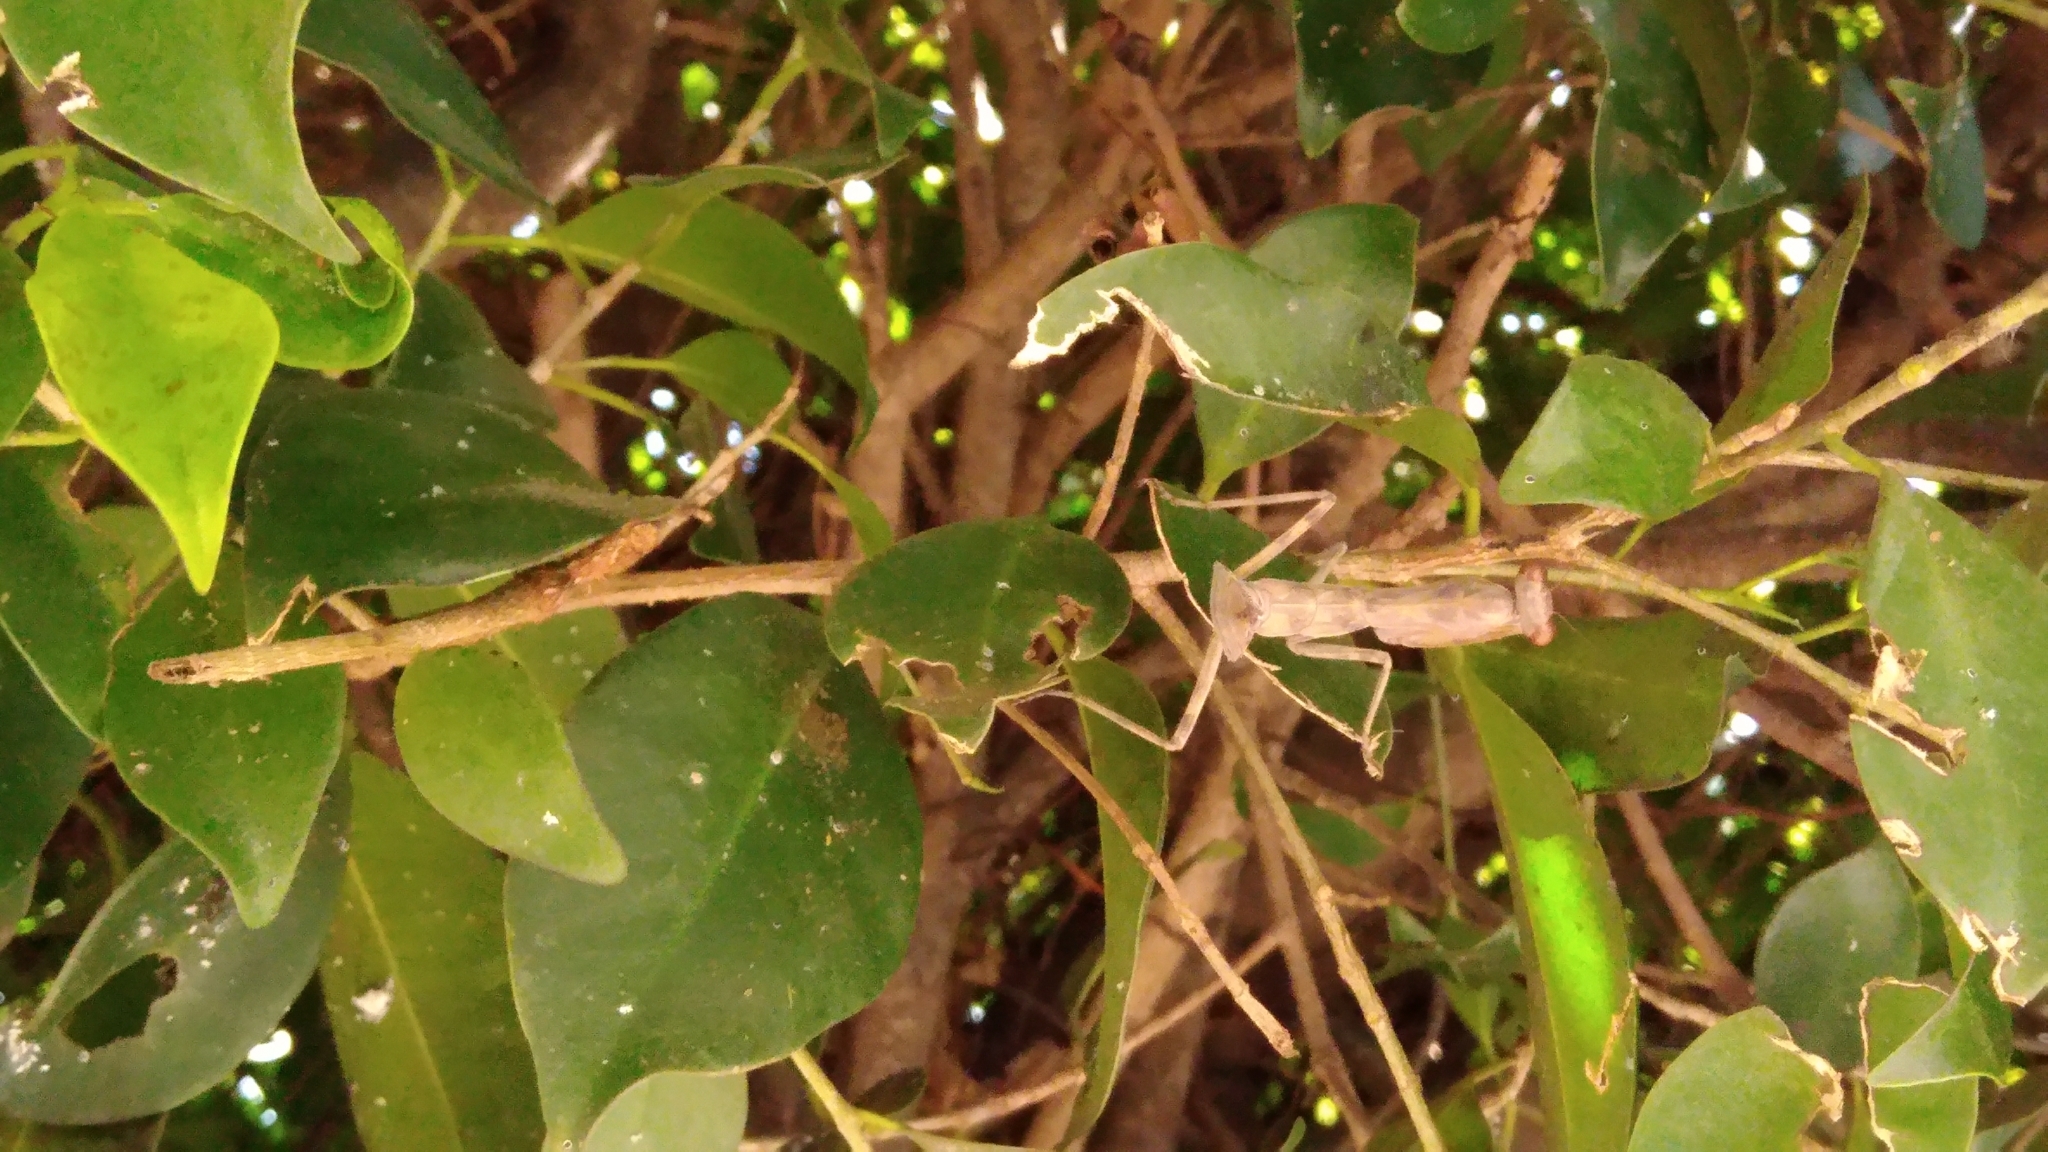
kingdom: Animalia
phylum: Arthropoda
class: Insecta
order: Mantodea
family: Mantidae
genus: Hierodula
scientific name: Hierodula patellifera
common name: Asian mantis
